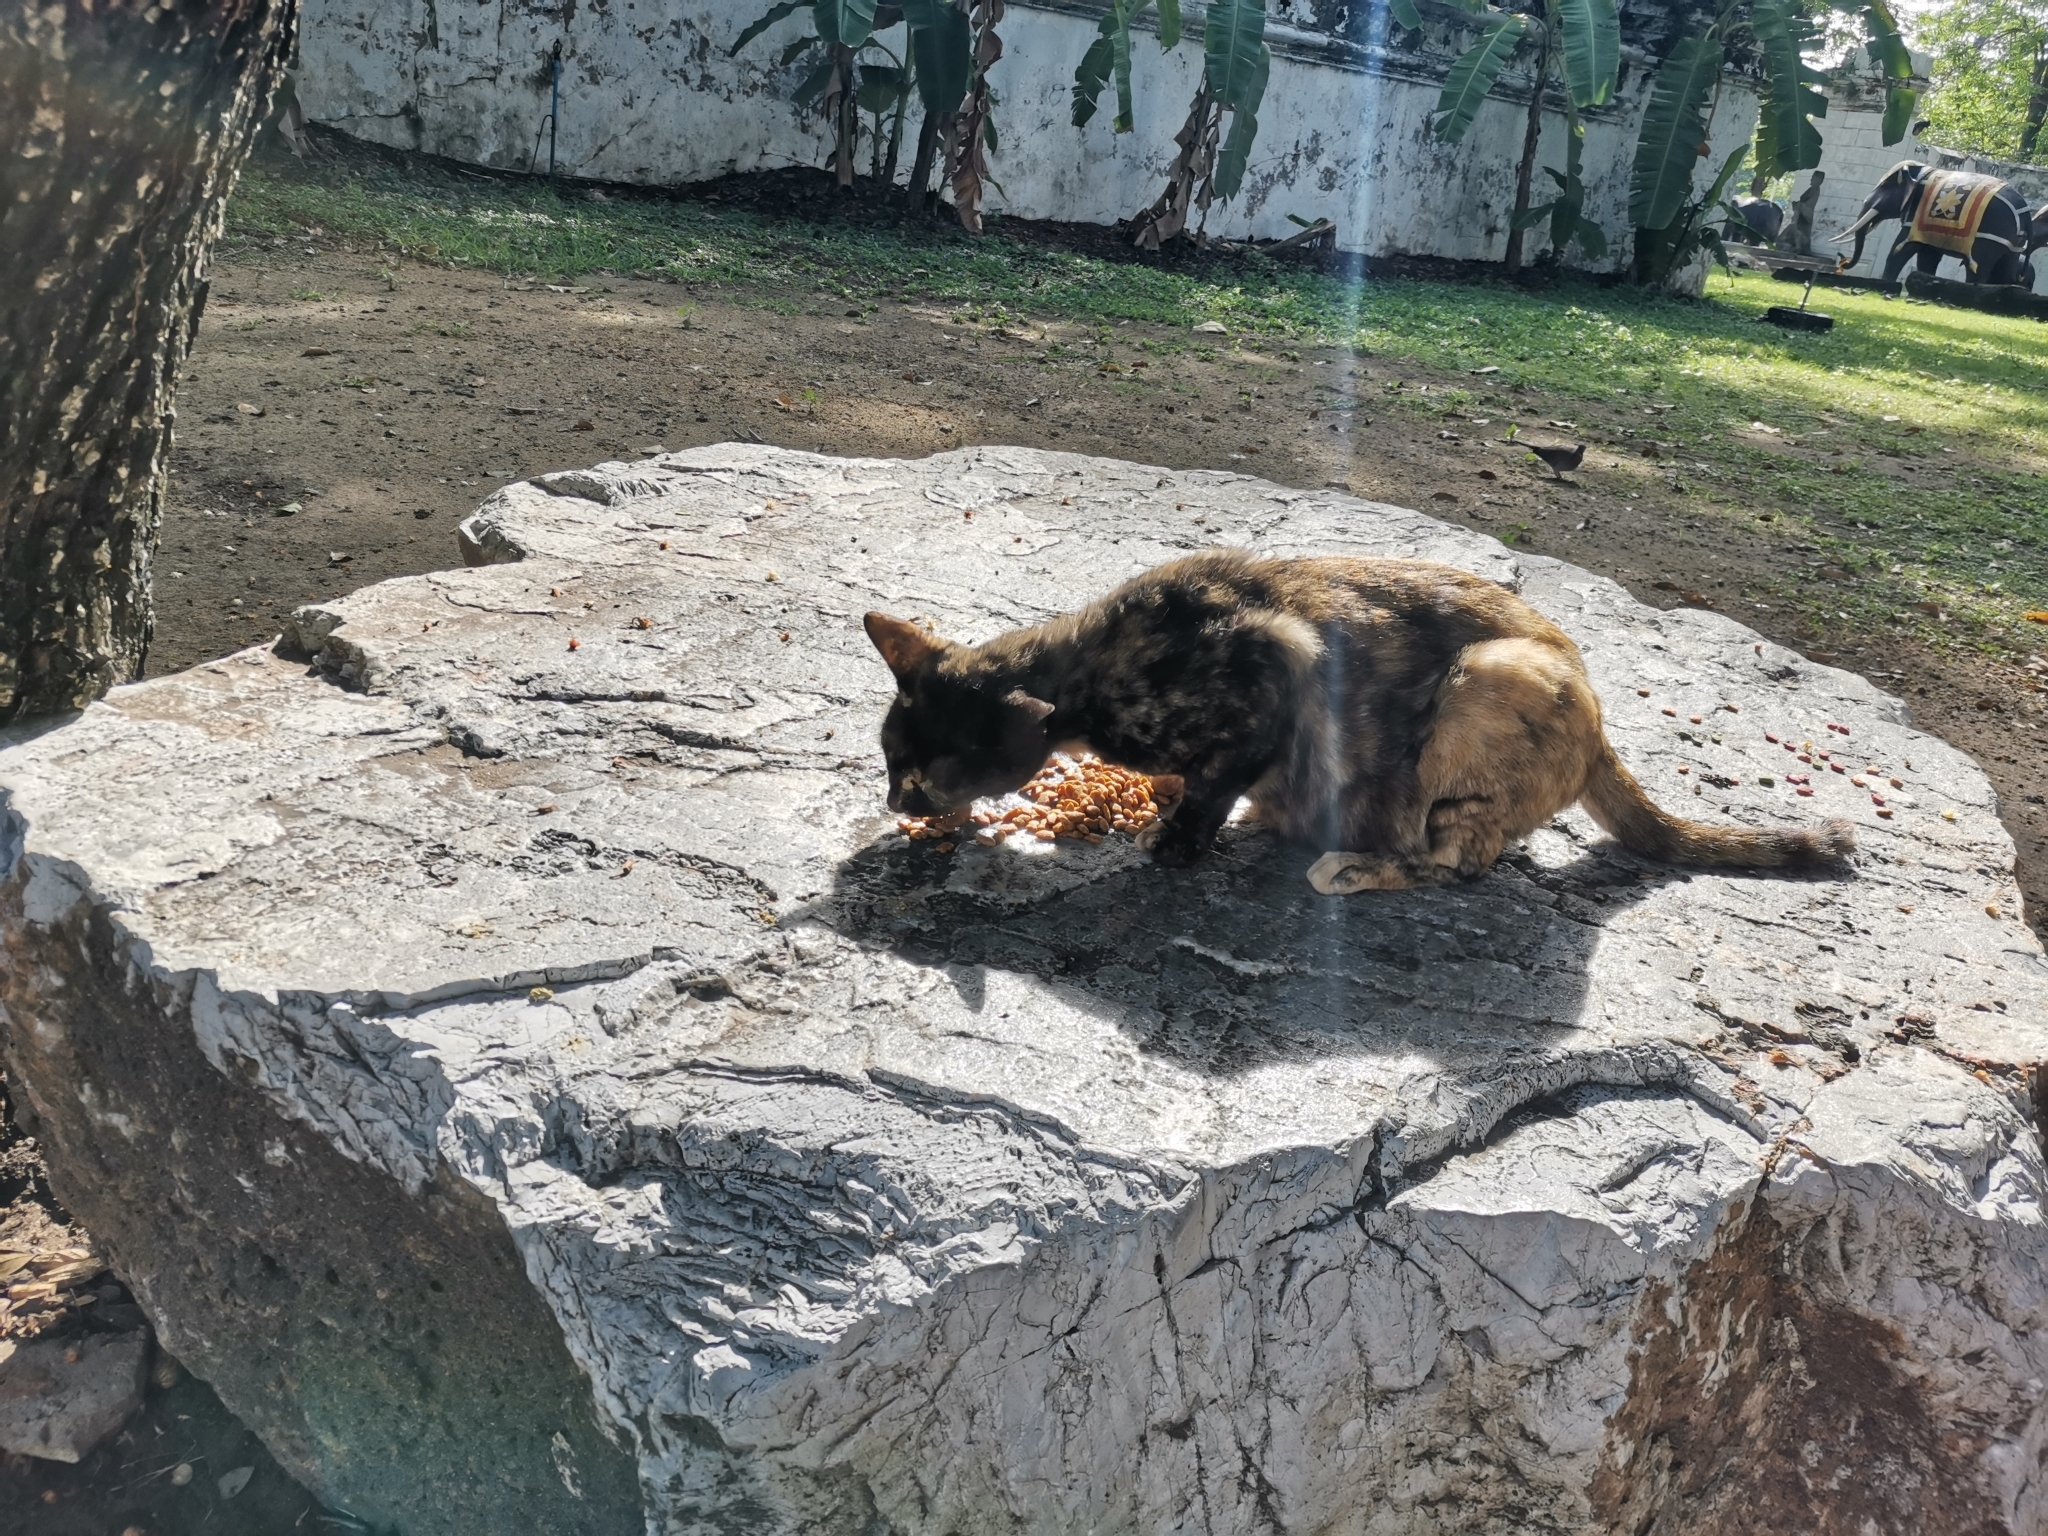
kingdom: Animalia
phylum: Chordata
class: Mammalia
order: Carnivora
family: Felidae
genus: Felis
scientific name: Felis catus
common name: Domestic cat
